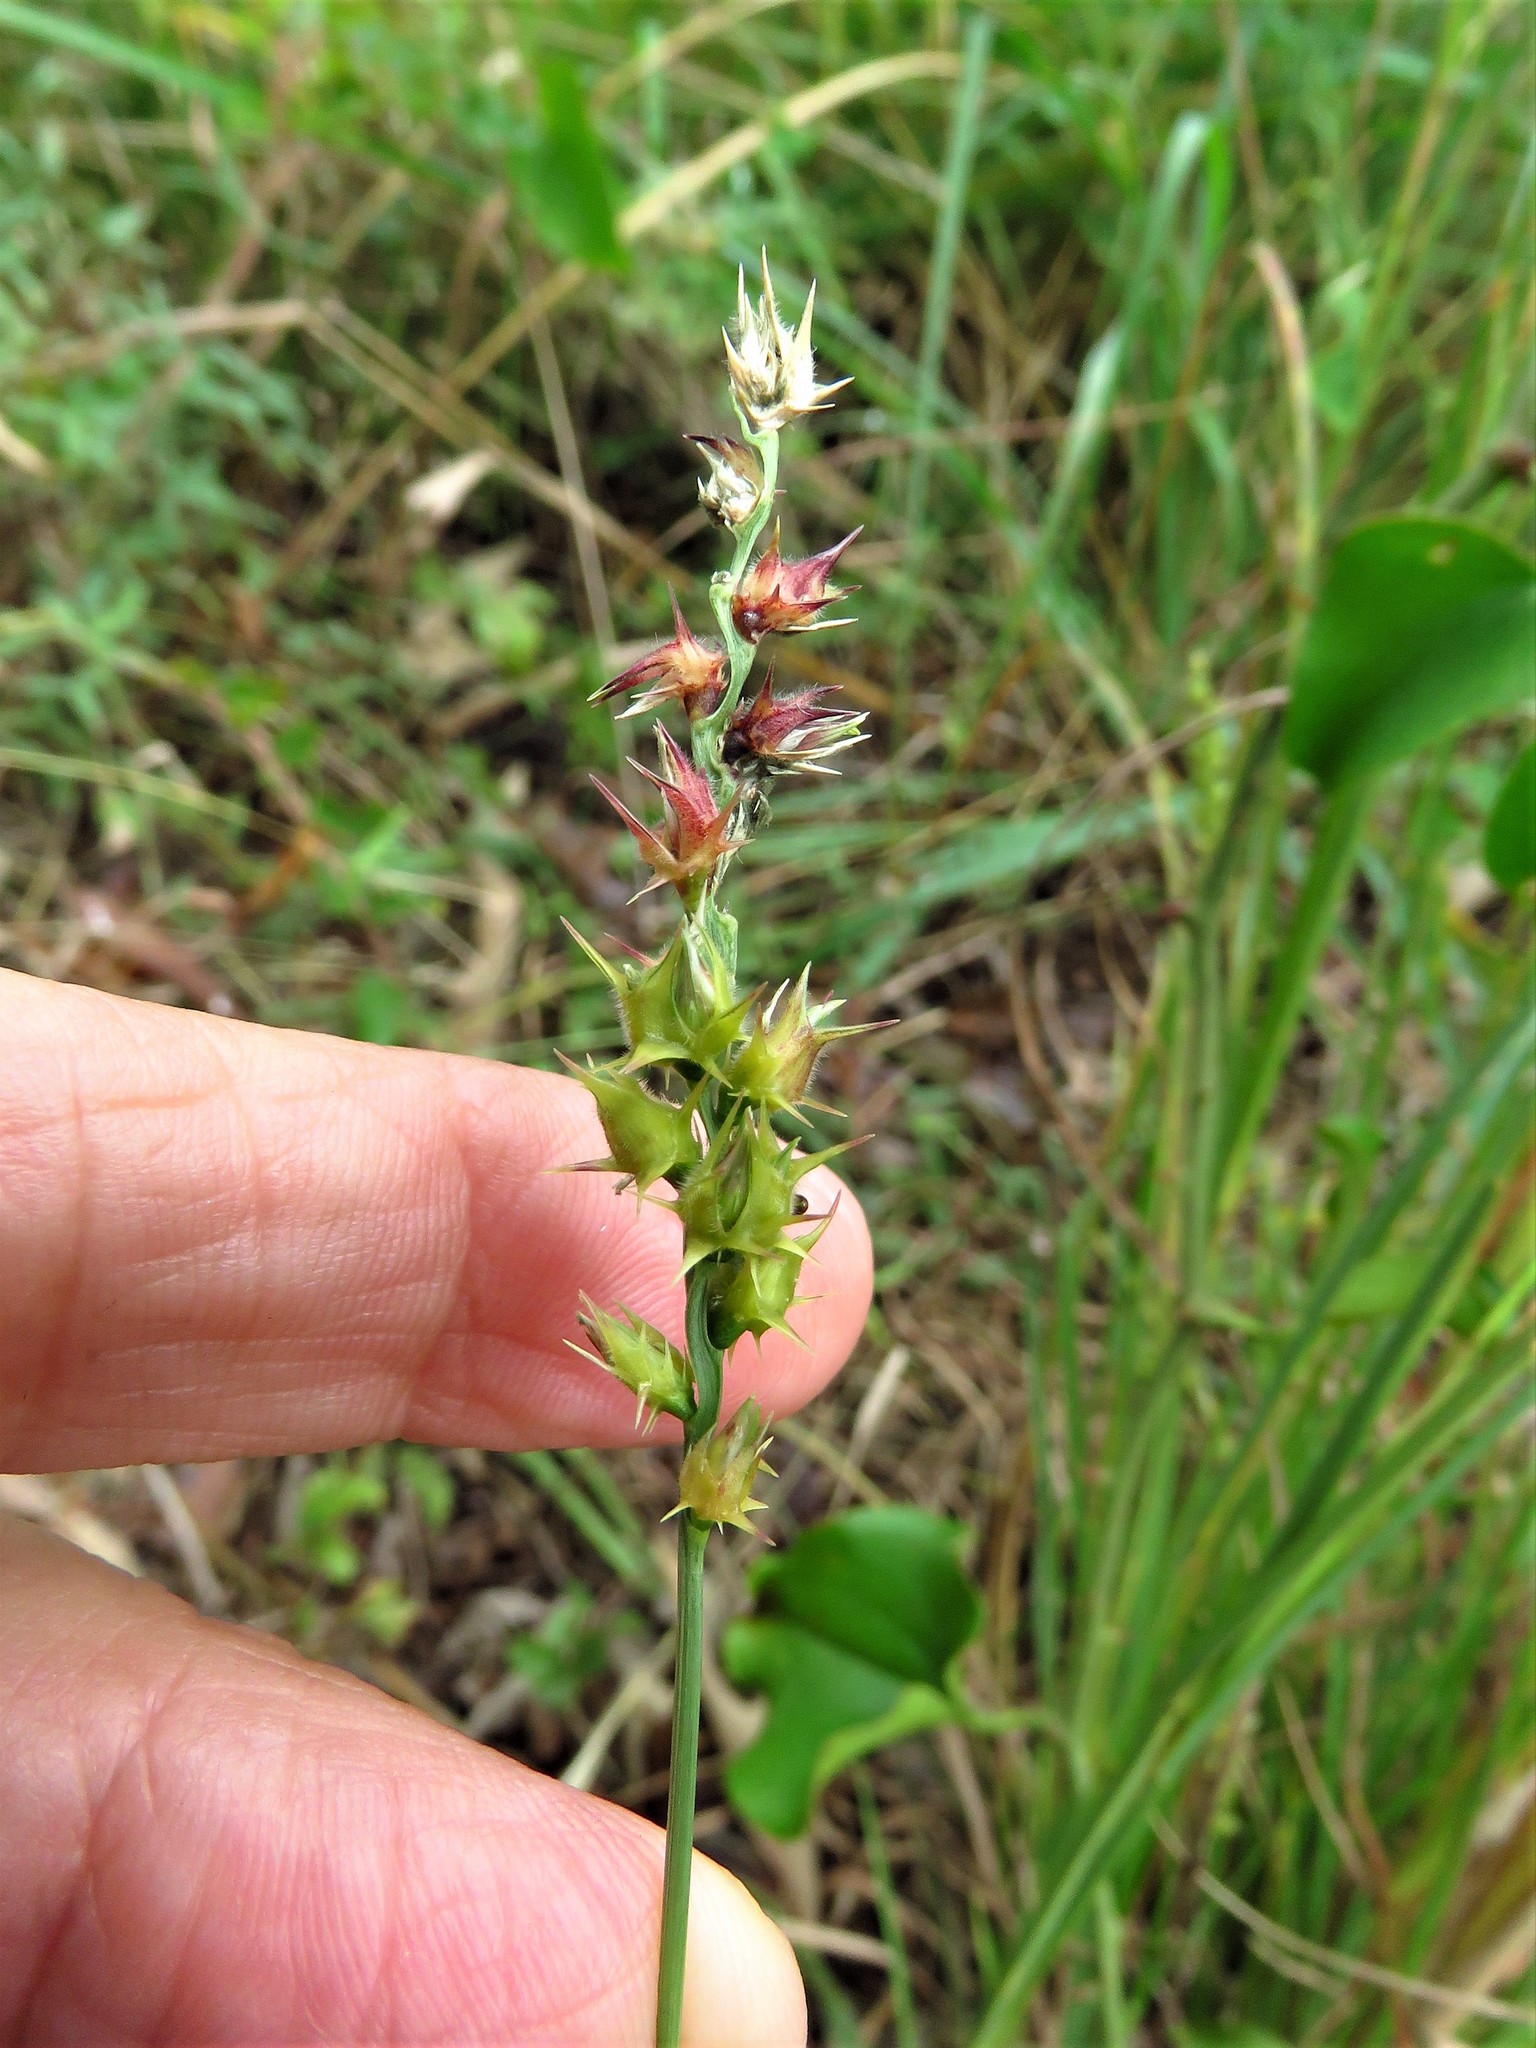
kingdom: Plantae
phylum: Tracheophyta
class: Liliopsida
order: Poales
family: Poaceae
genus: Cenchrus
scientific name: Cenchrus spinifex
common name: Coast sandbur
